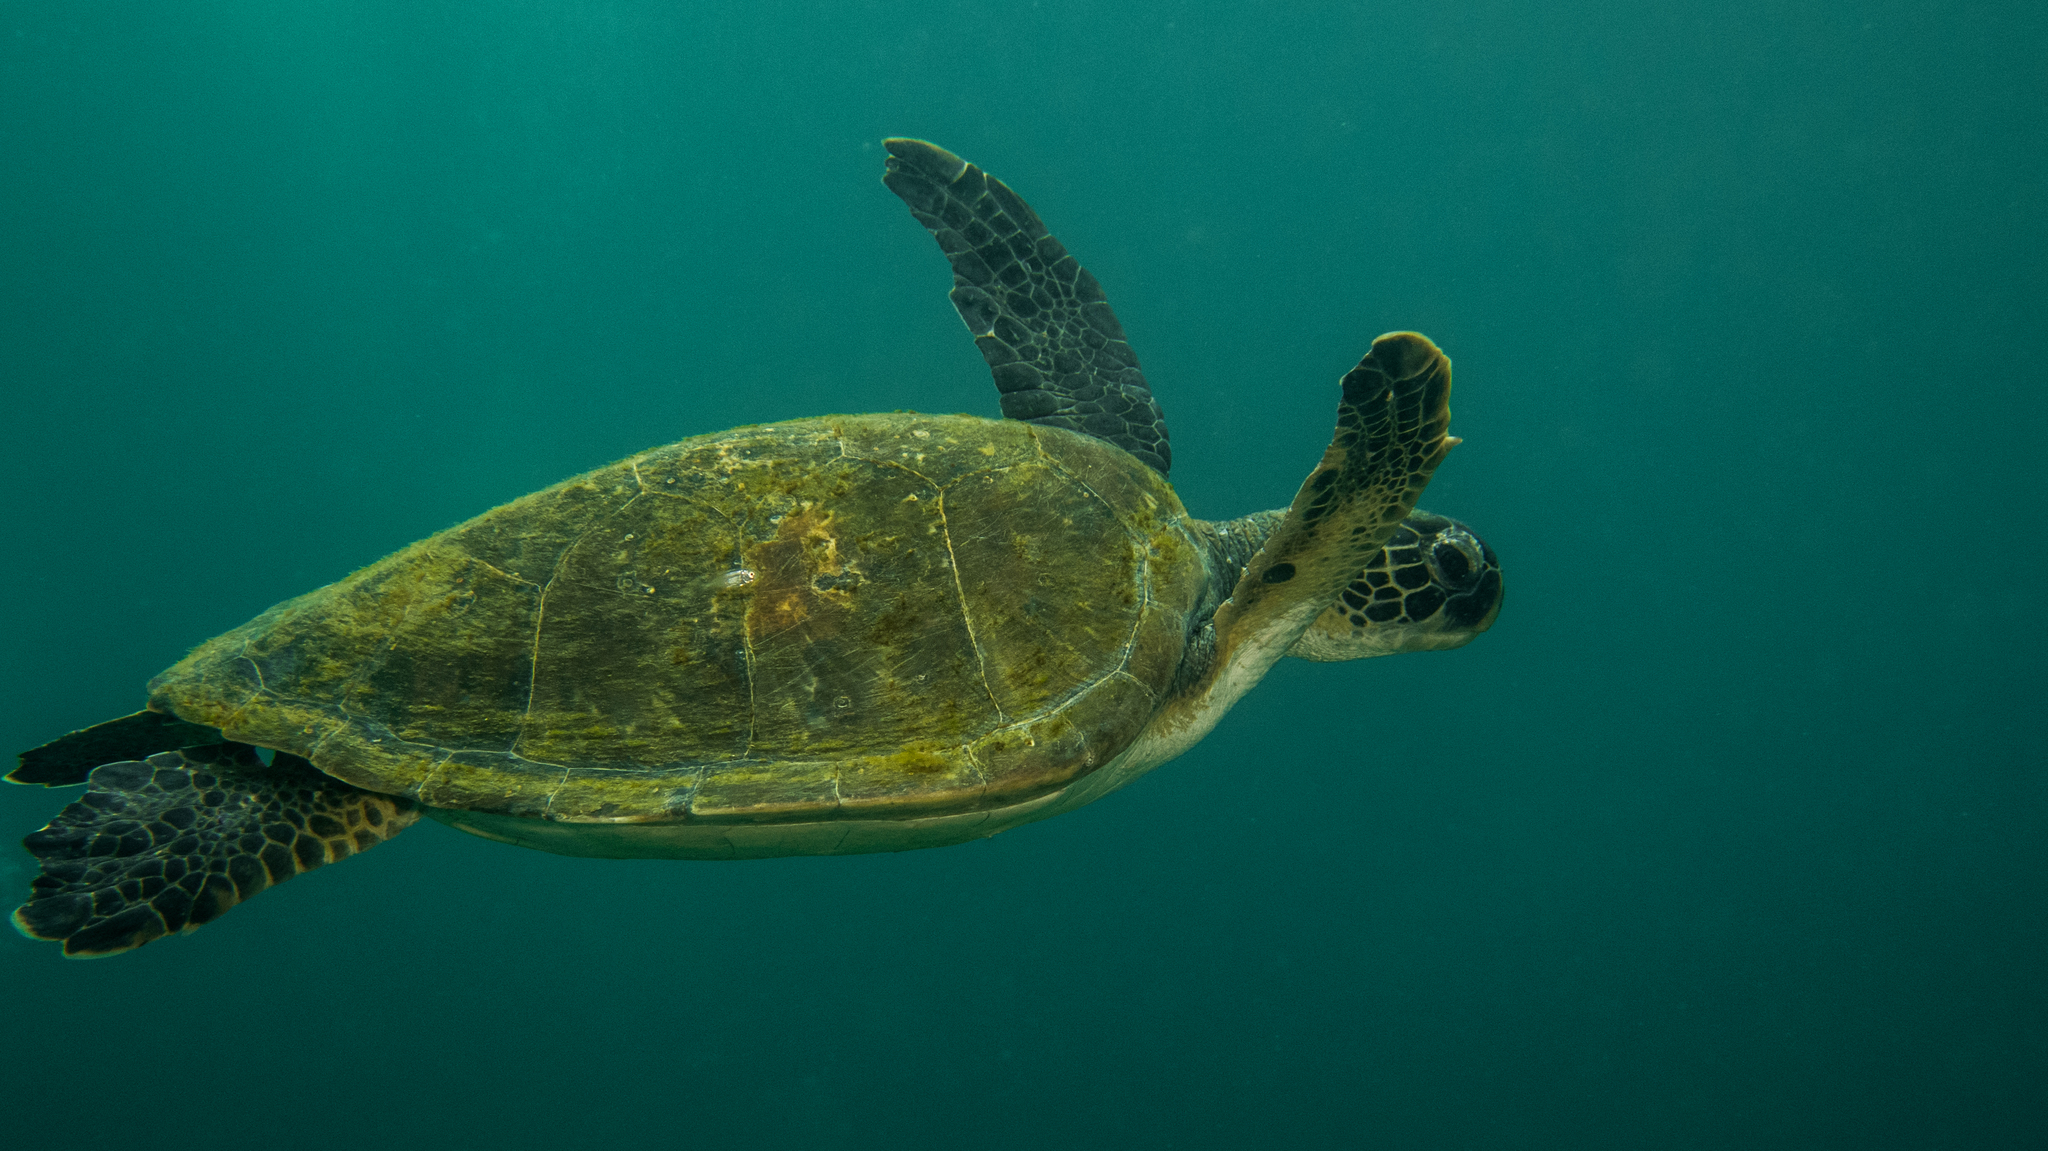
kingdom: Animalia
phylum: Chordata
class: Testudines
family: Cheloniidae
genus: Chelonia
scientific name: Chelonia mydas
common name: Green turtle
